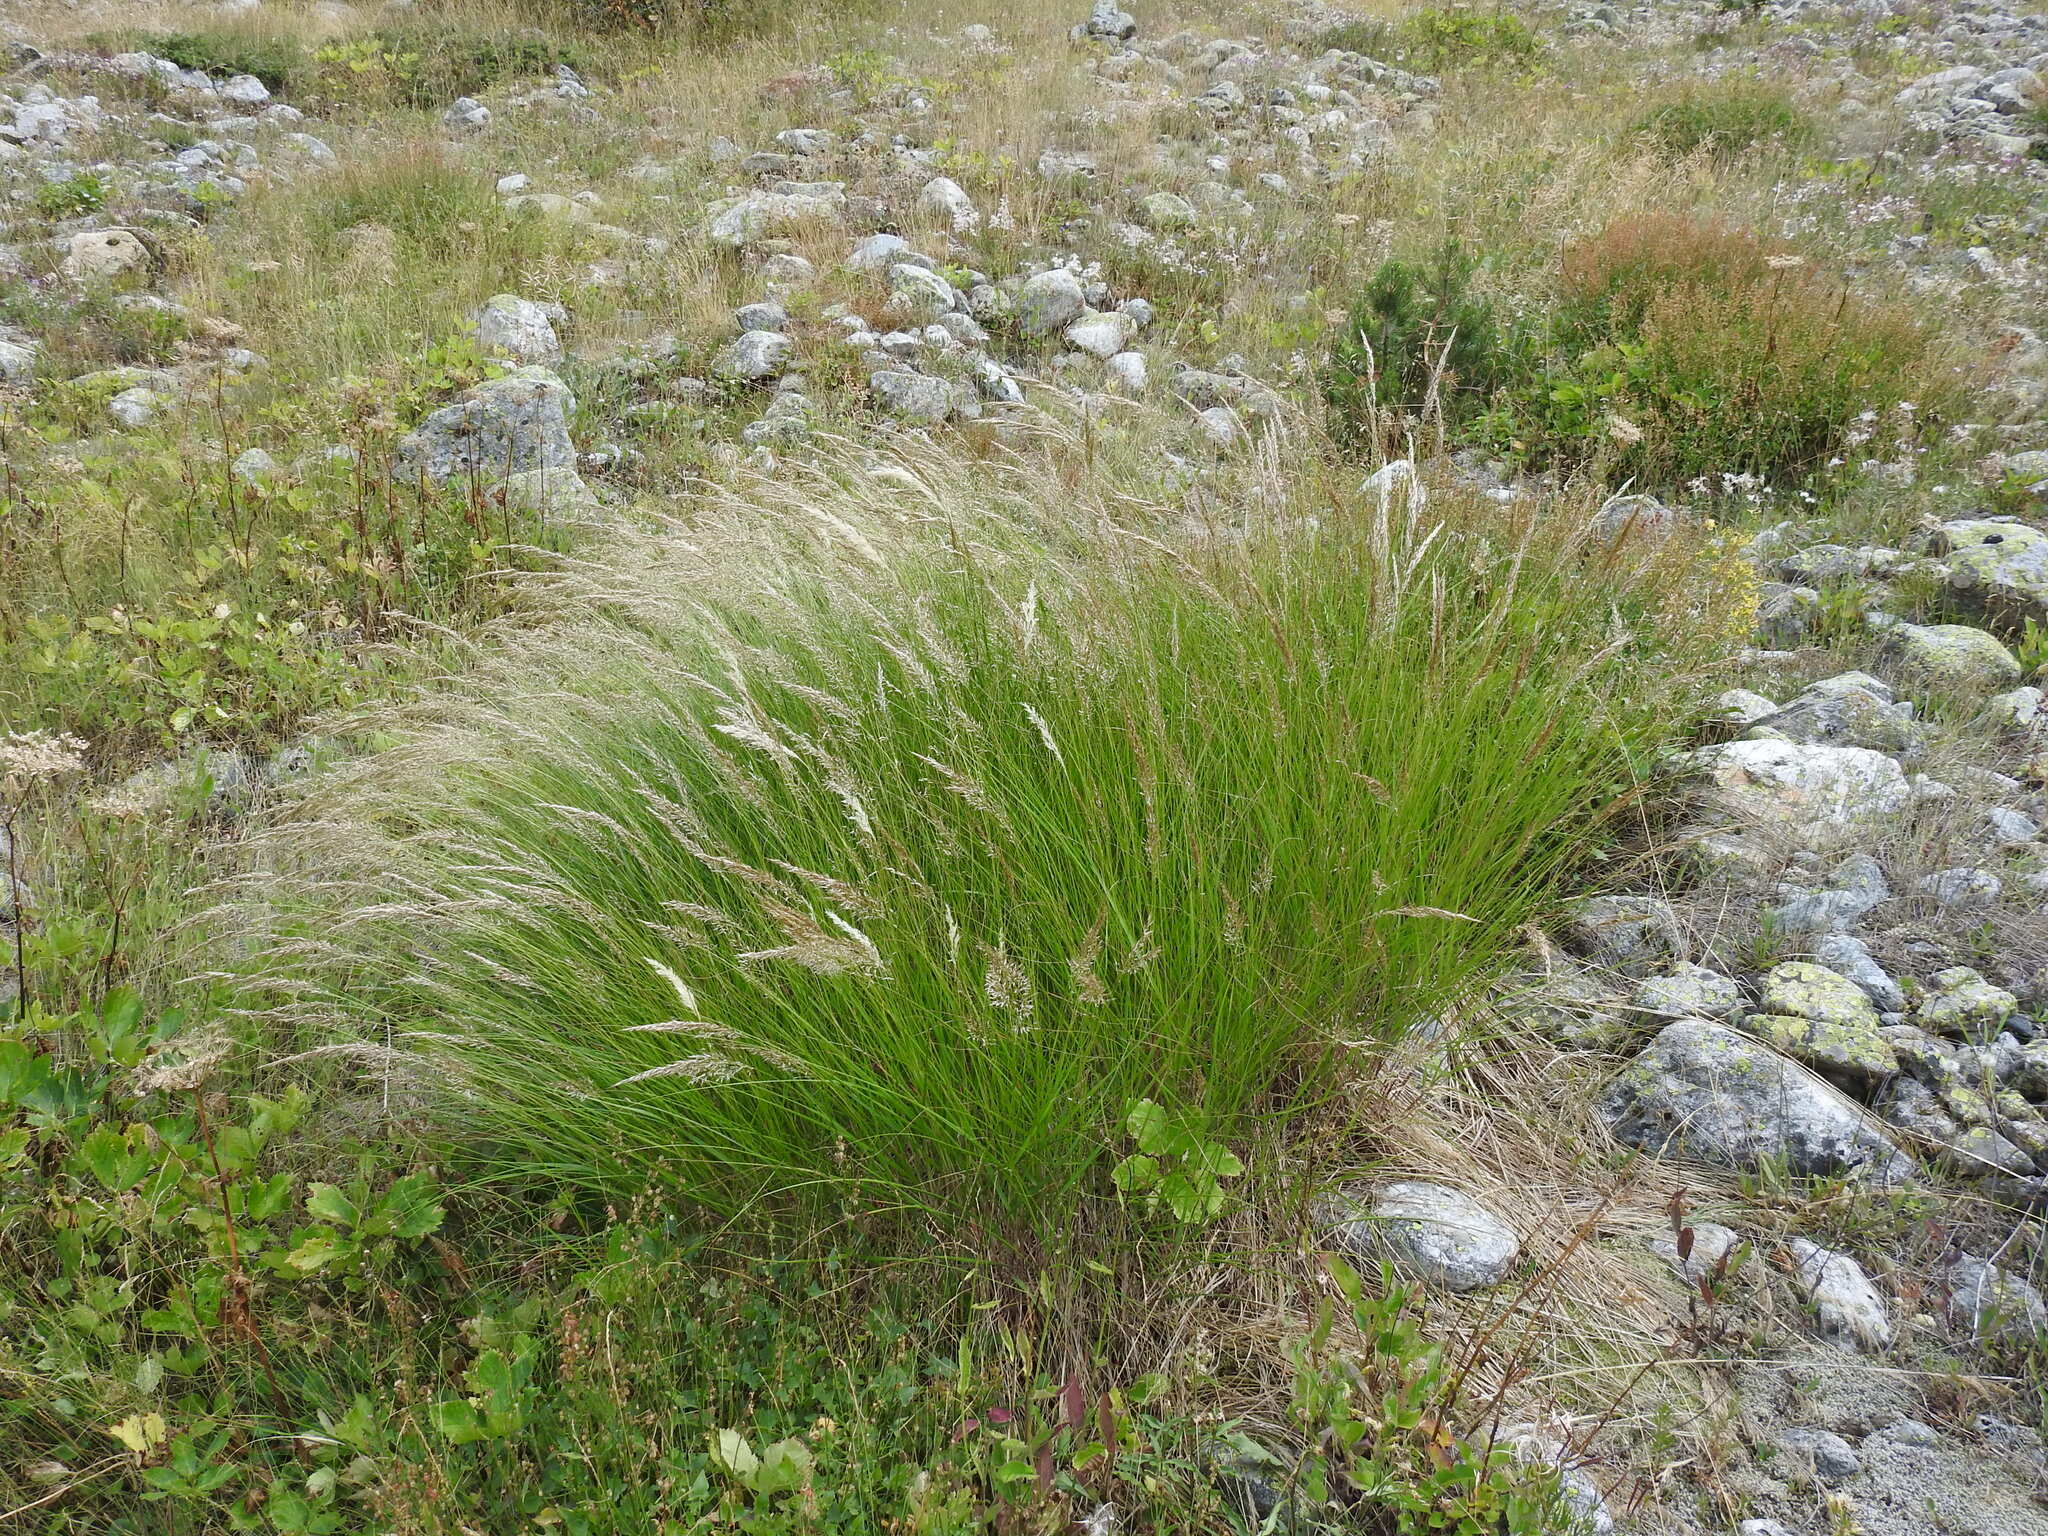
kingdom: Plantae
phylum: Tracheophyta
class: Liliopsida
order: Poales
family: Poaceae
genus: Trisetum
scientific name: Trisetum flavescens
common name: Yellow oat-grass
